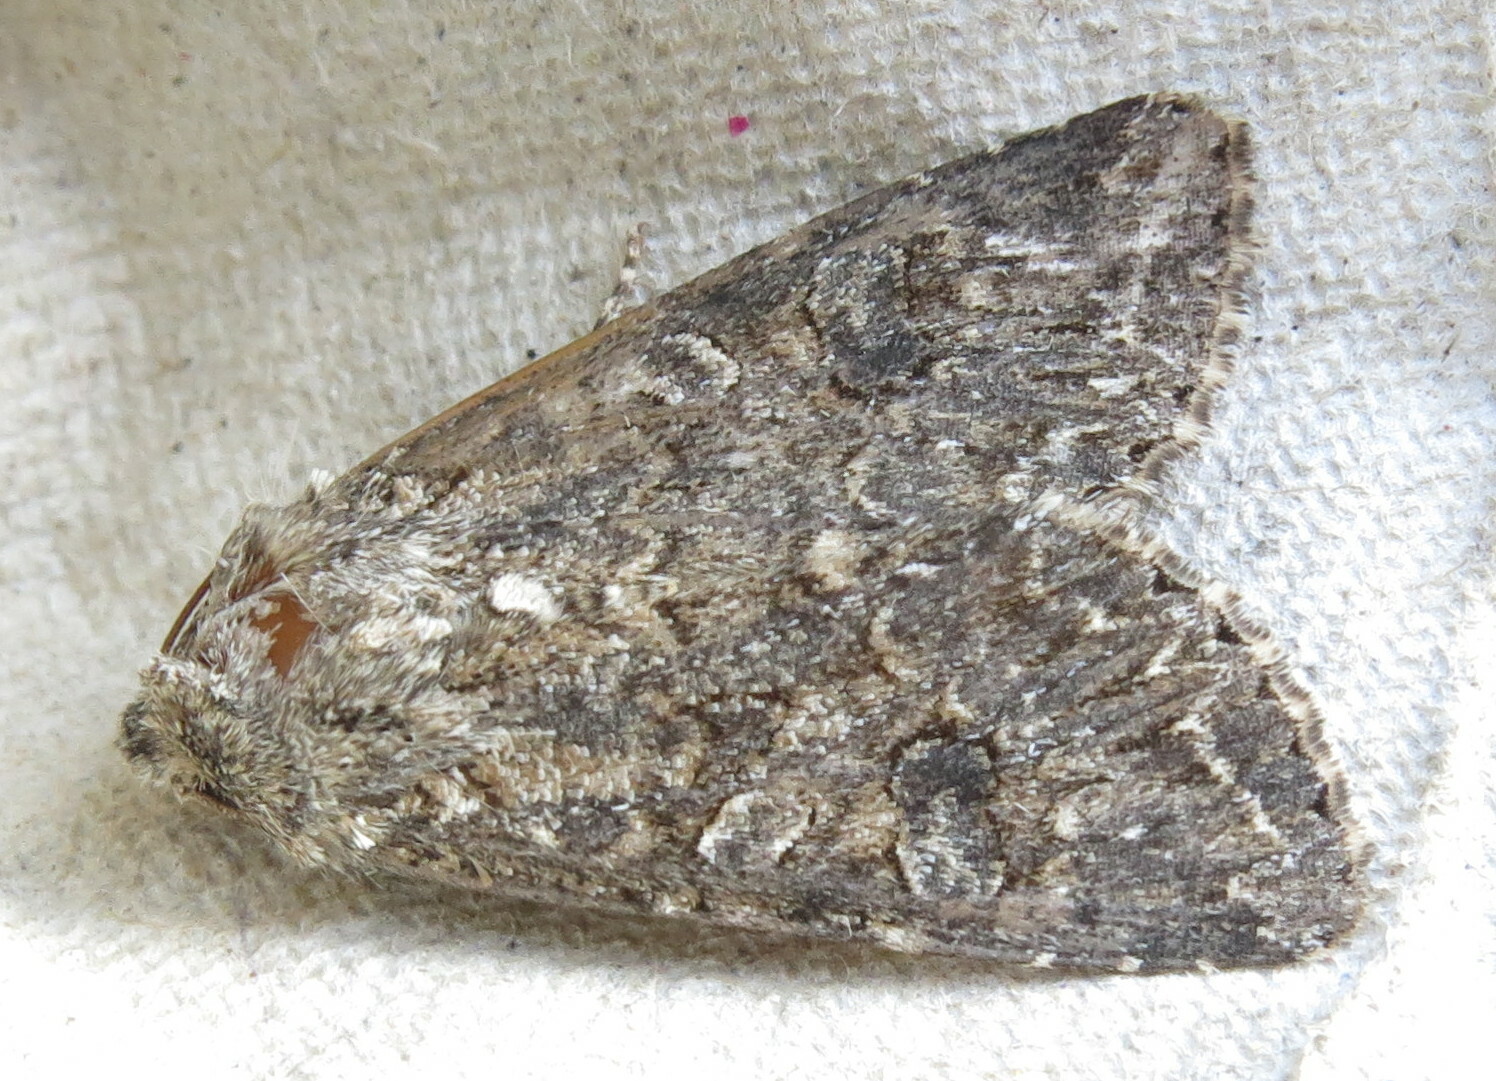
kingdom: Animalia
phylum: Arthropoda
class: Insecta
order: Lepidoptera
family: Noctuidae
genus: Anarta
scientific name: Anarta trifolii
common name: Clover cutworm moth
